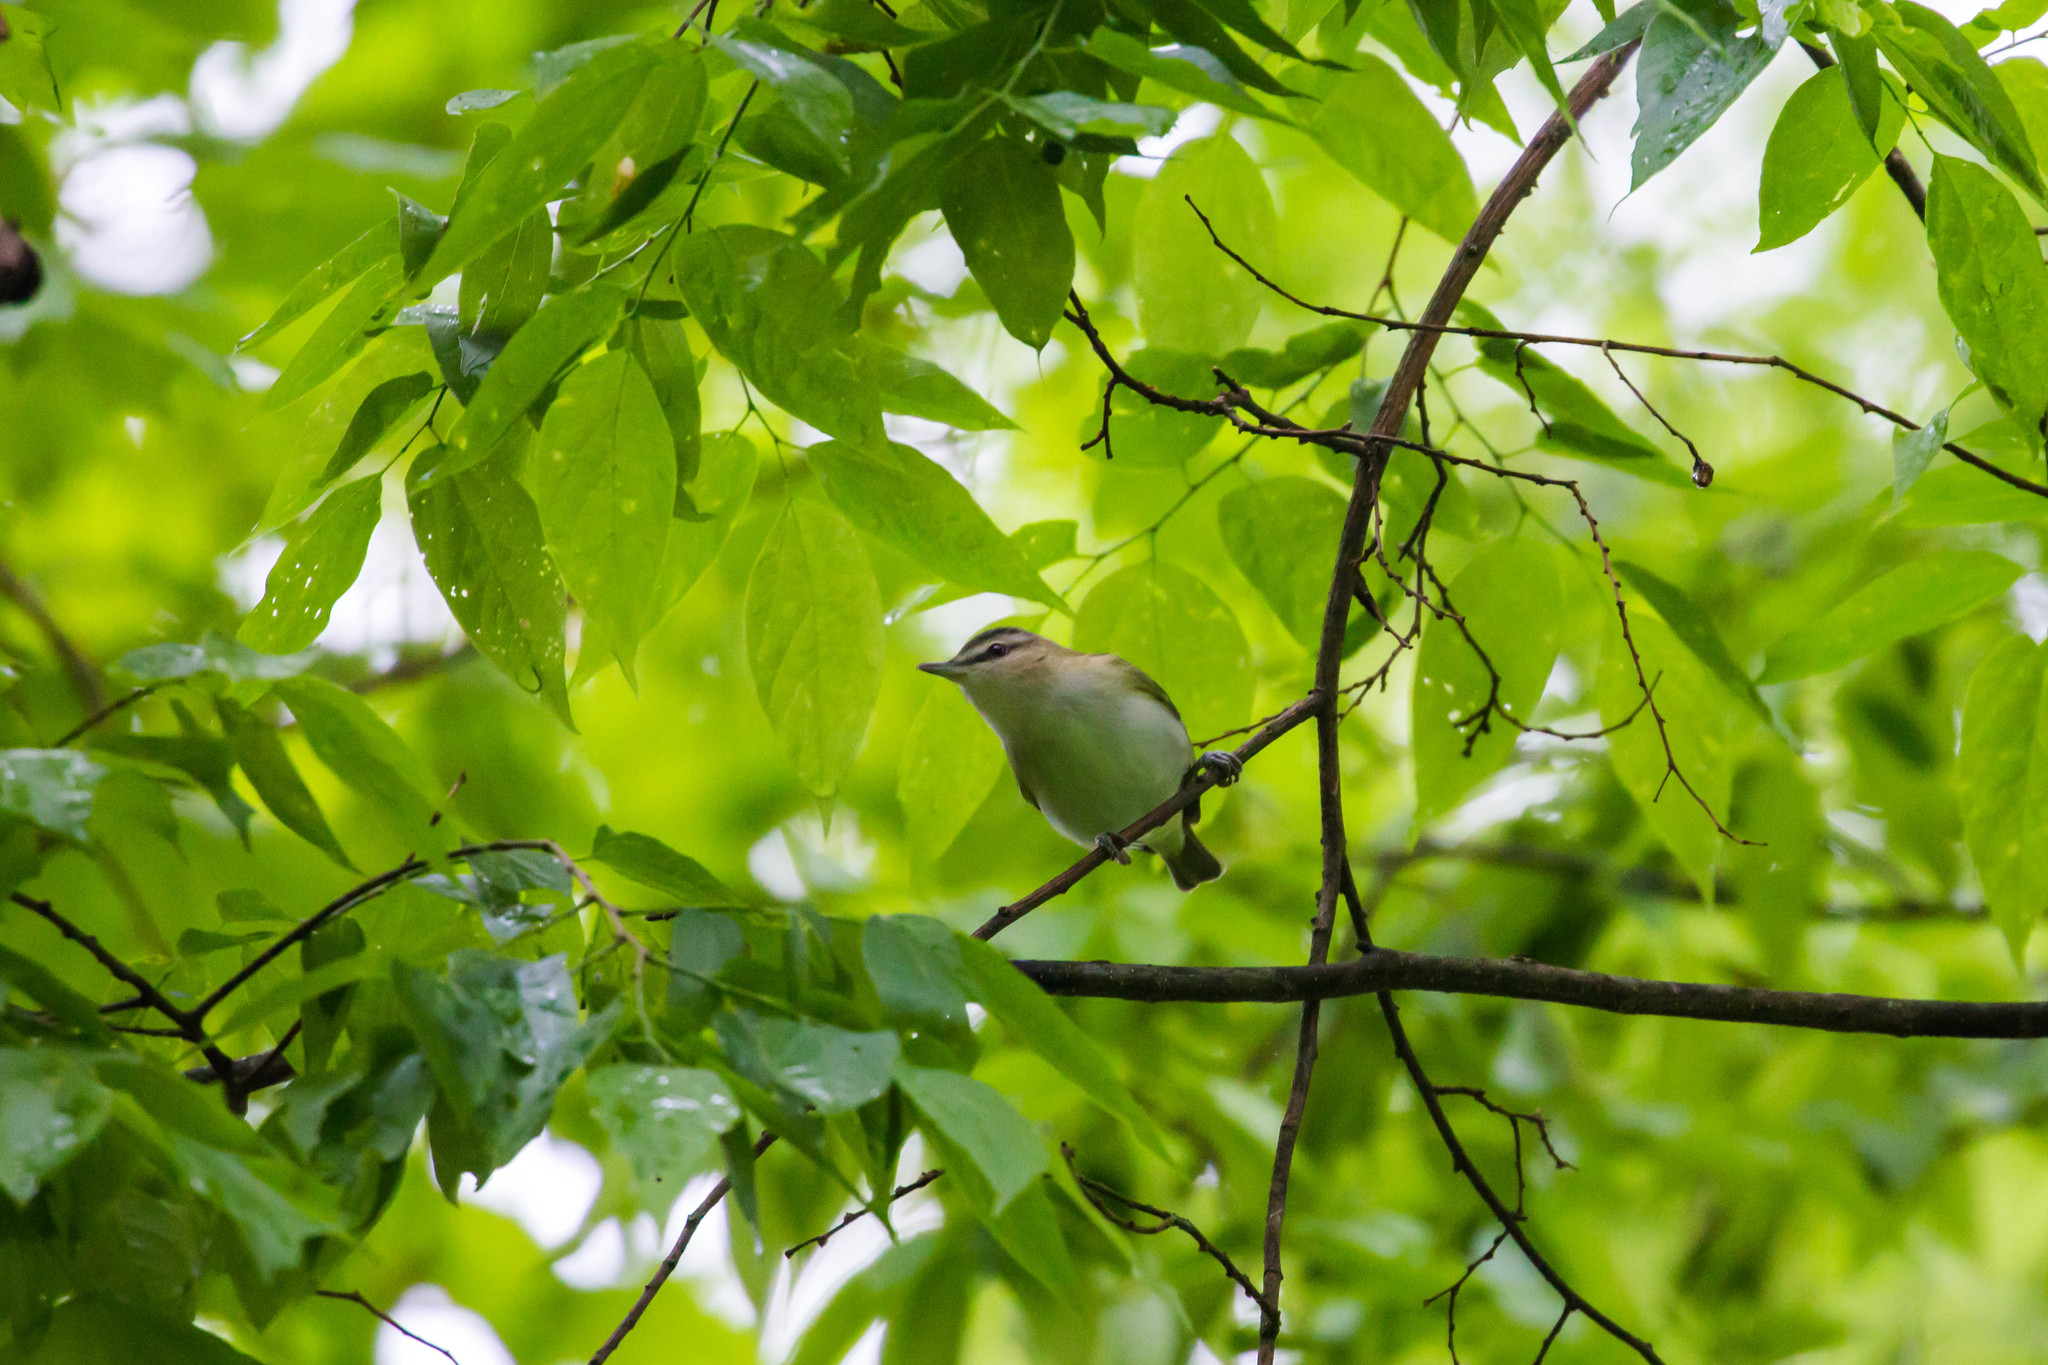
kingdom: Animalia
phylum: Chordata
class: Aves
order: Passeriformes
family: Vireonidae
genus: Vireo
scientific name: Vireo olivaceus
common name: Red-eyed vireo
